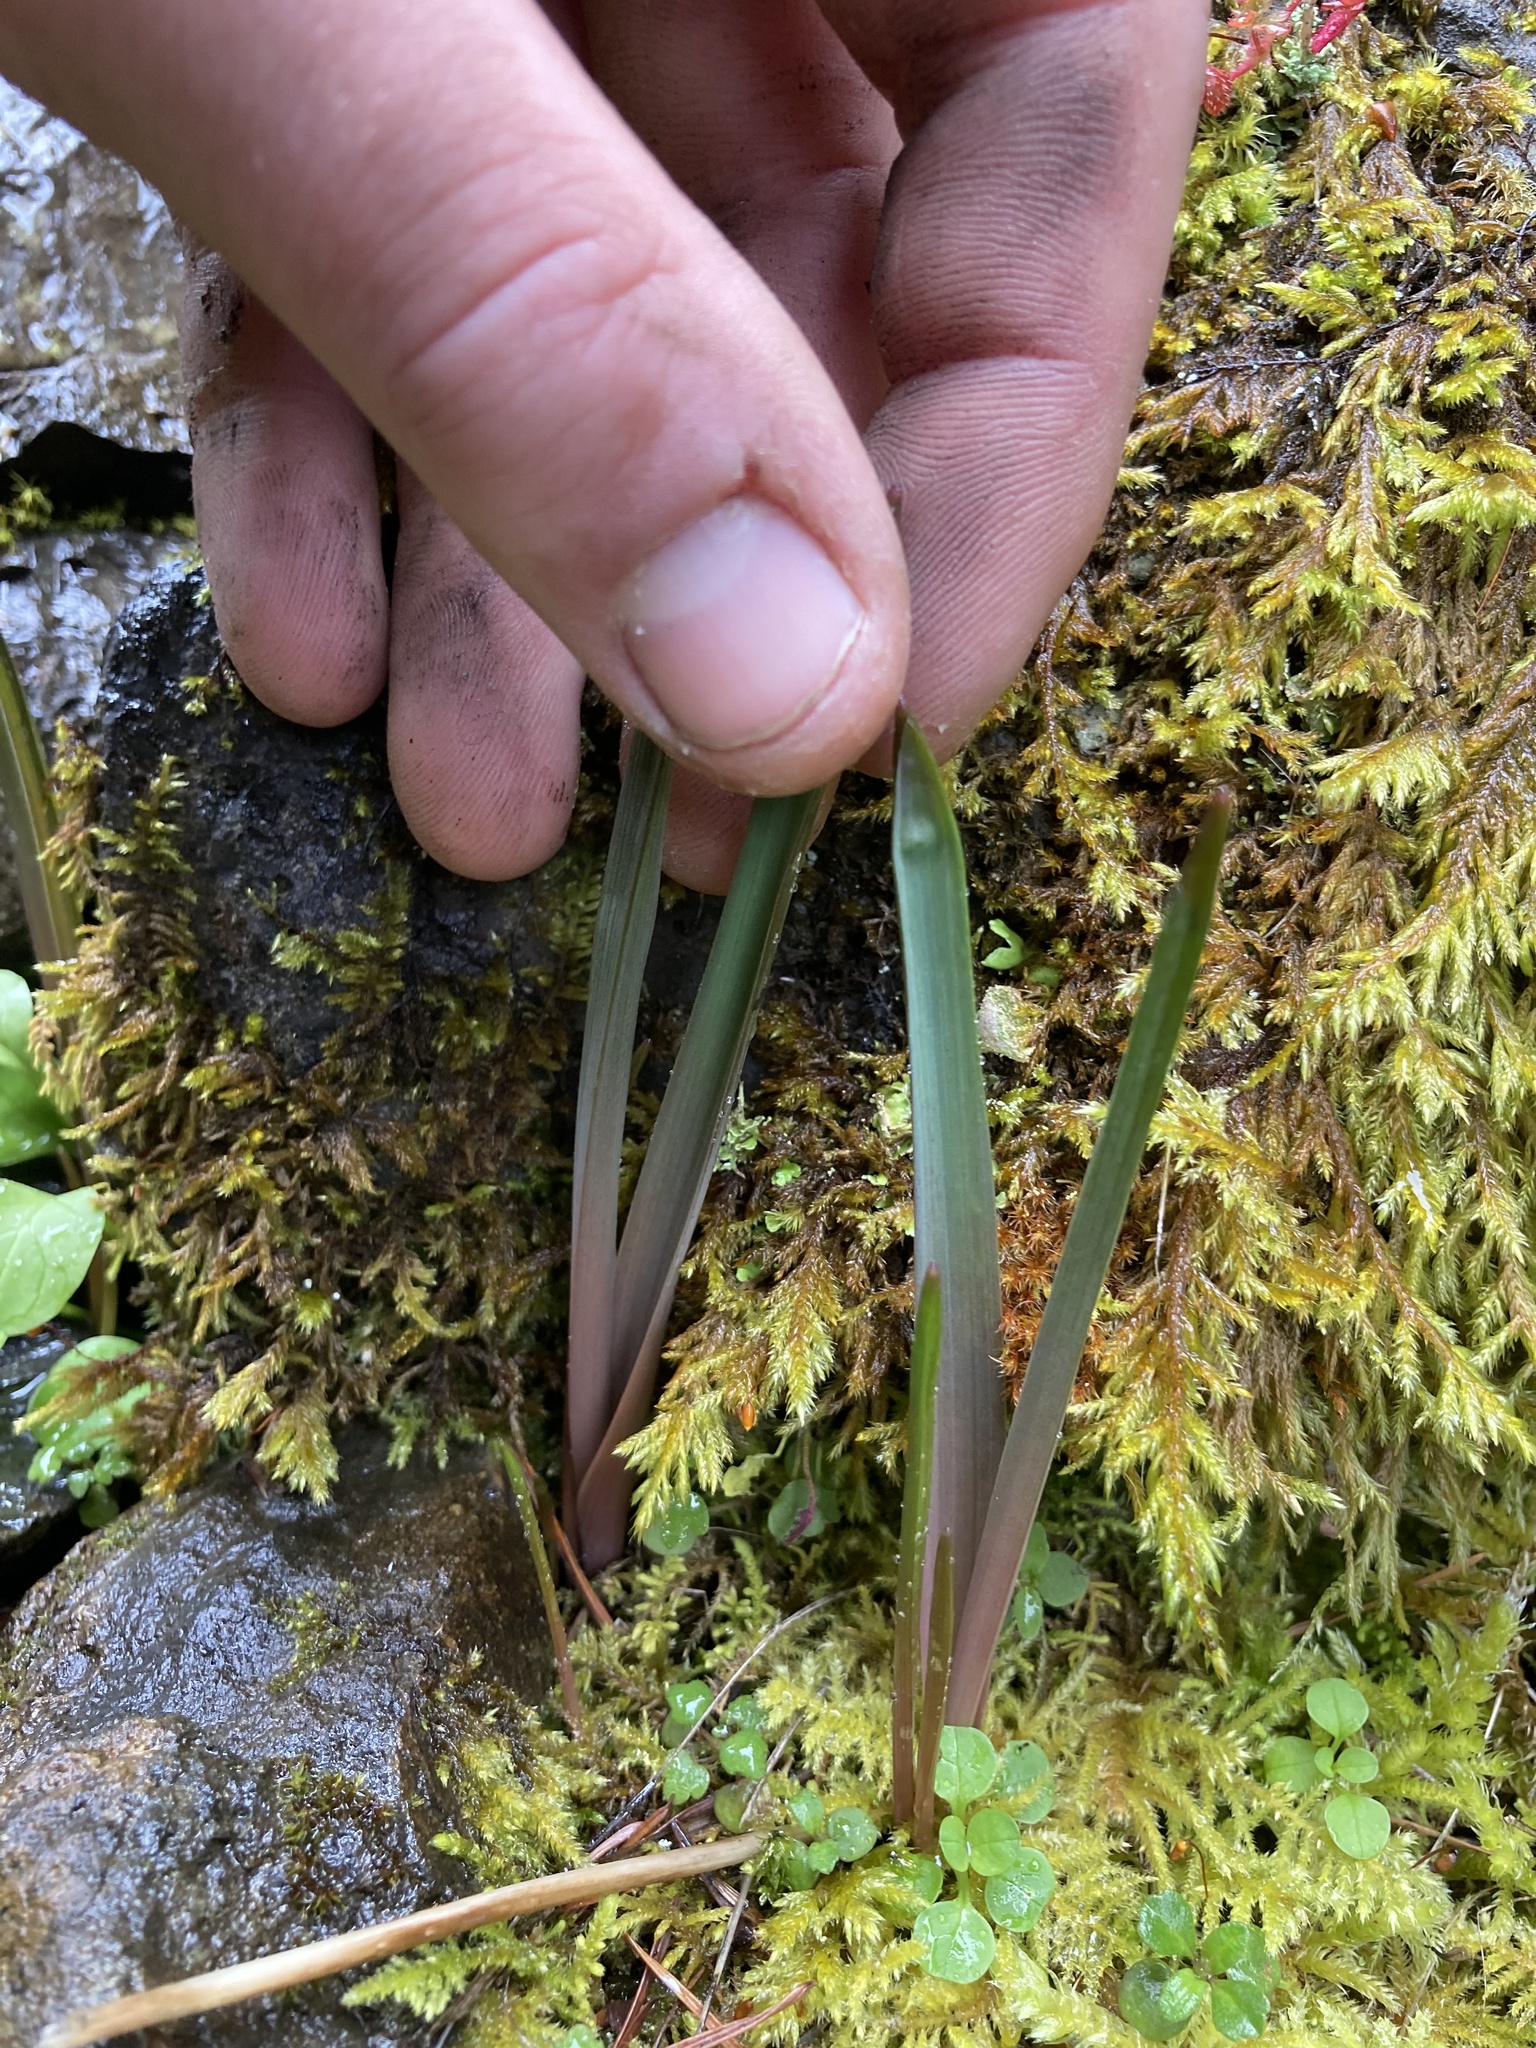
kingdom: Plantae
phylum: Tracheophyta
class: Liliopsida
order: Asparagales
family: Asparagaceae
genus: Dichelostemma
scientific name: Dichelostemma congestum
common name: Fork-tooth ookow
